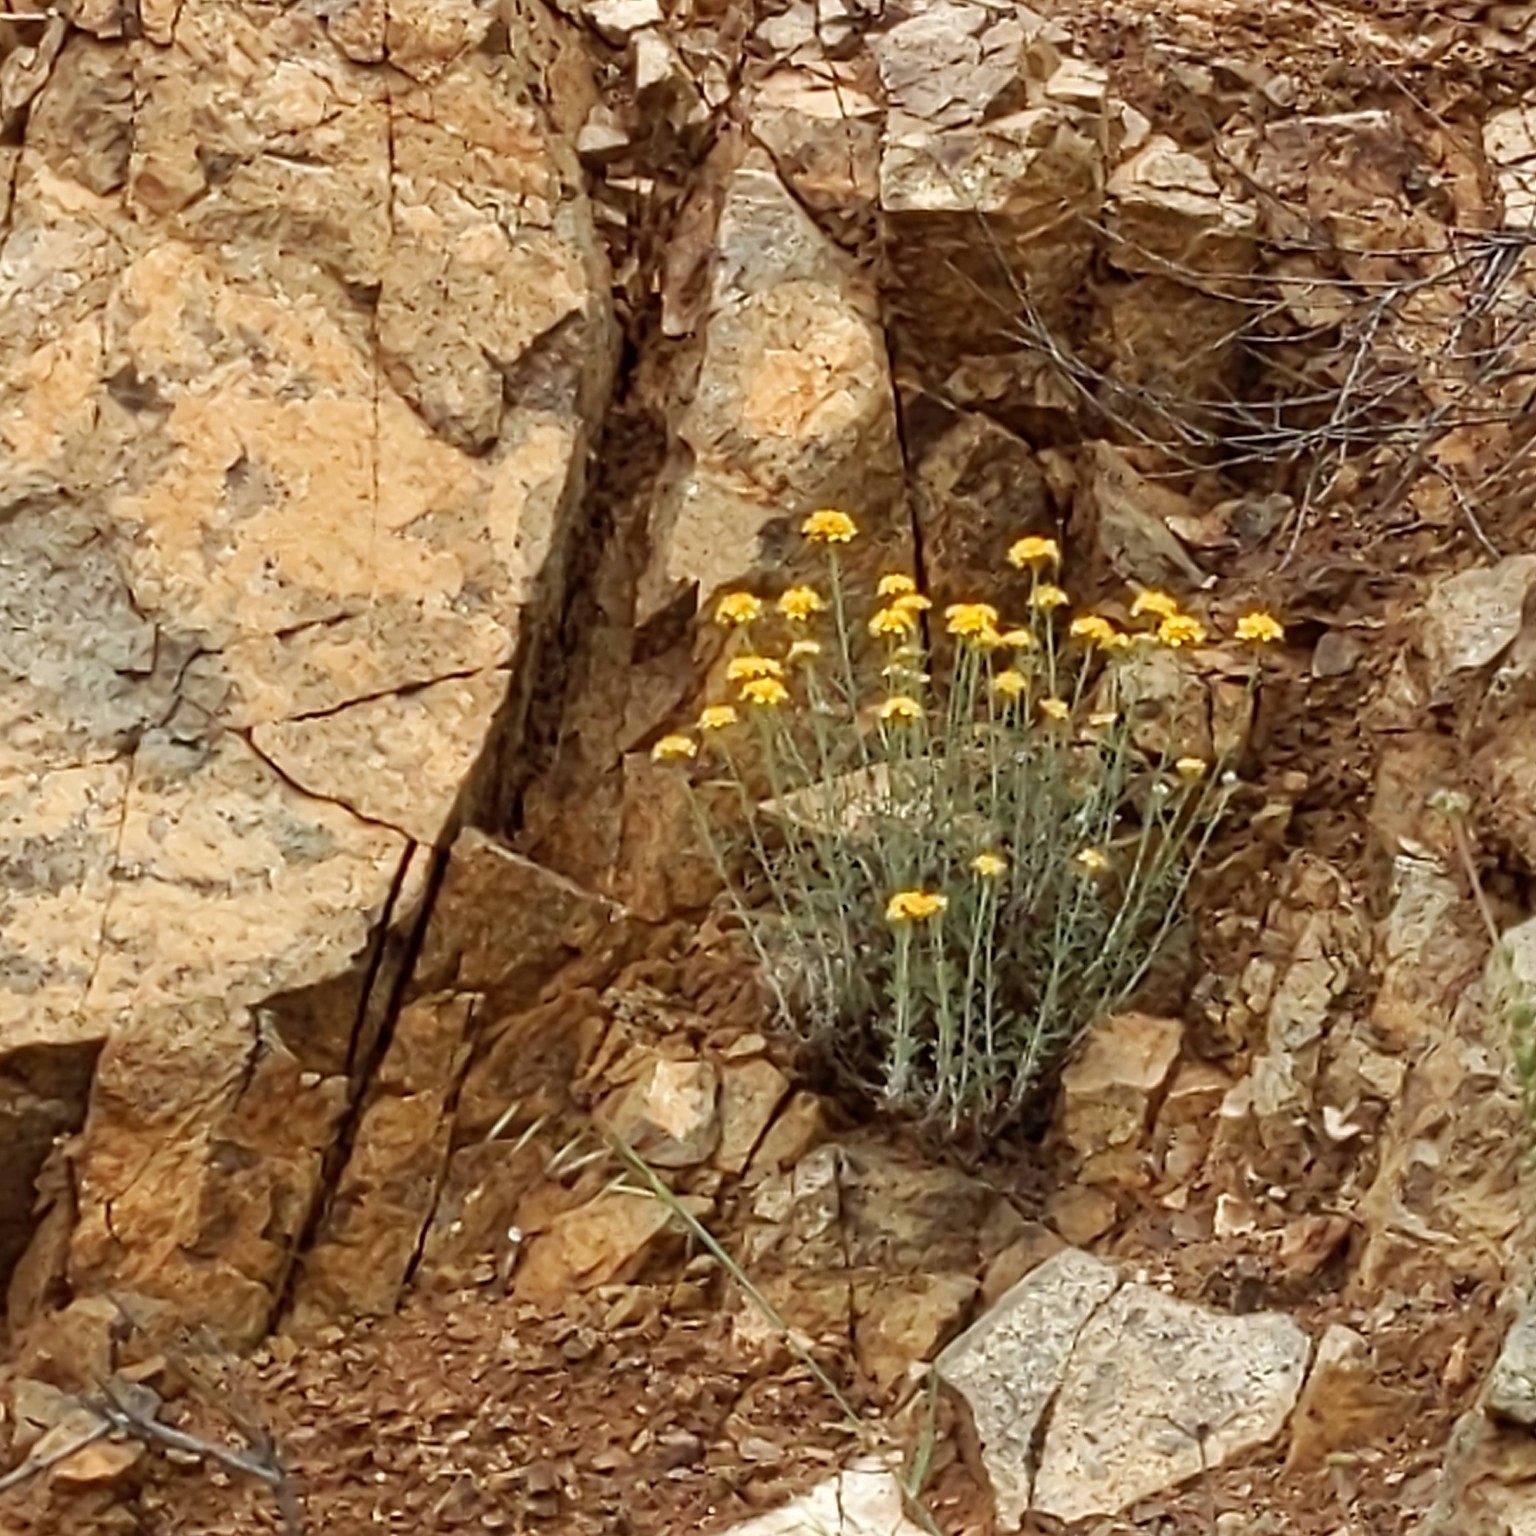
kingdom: Plantae
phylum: Tracheophyta
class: Magnoliopsida
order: Asterales
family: Asteraceae
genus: Eriophyllum
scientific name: Eriophyllum confertiflorum
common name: Golden-yarrow
